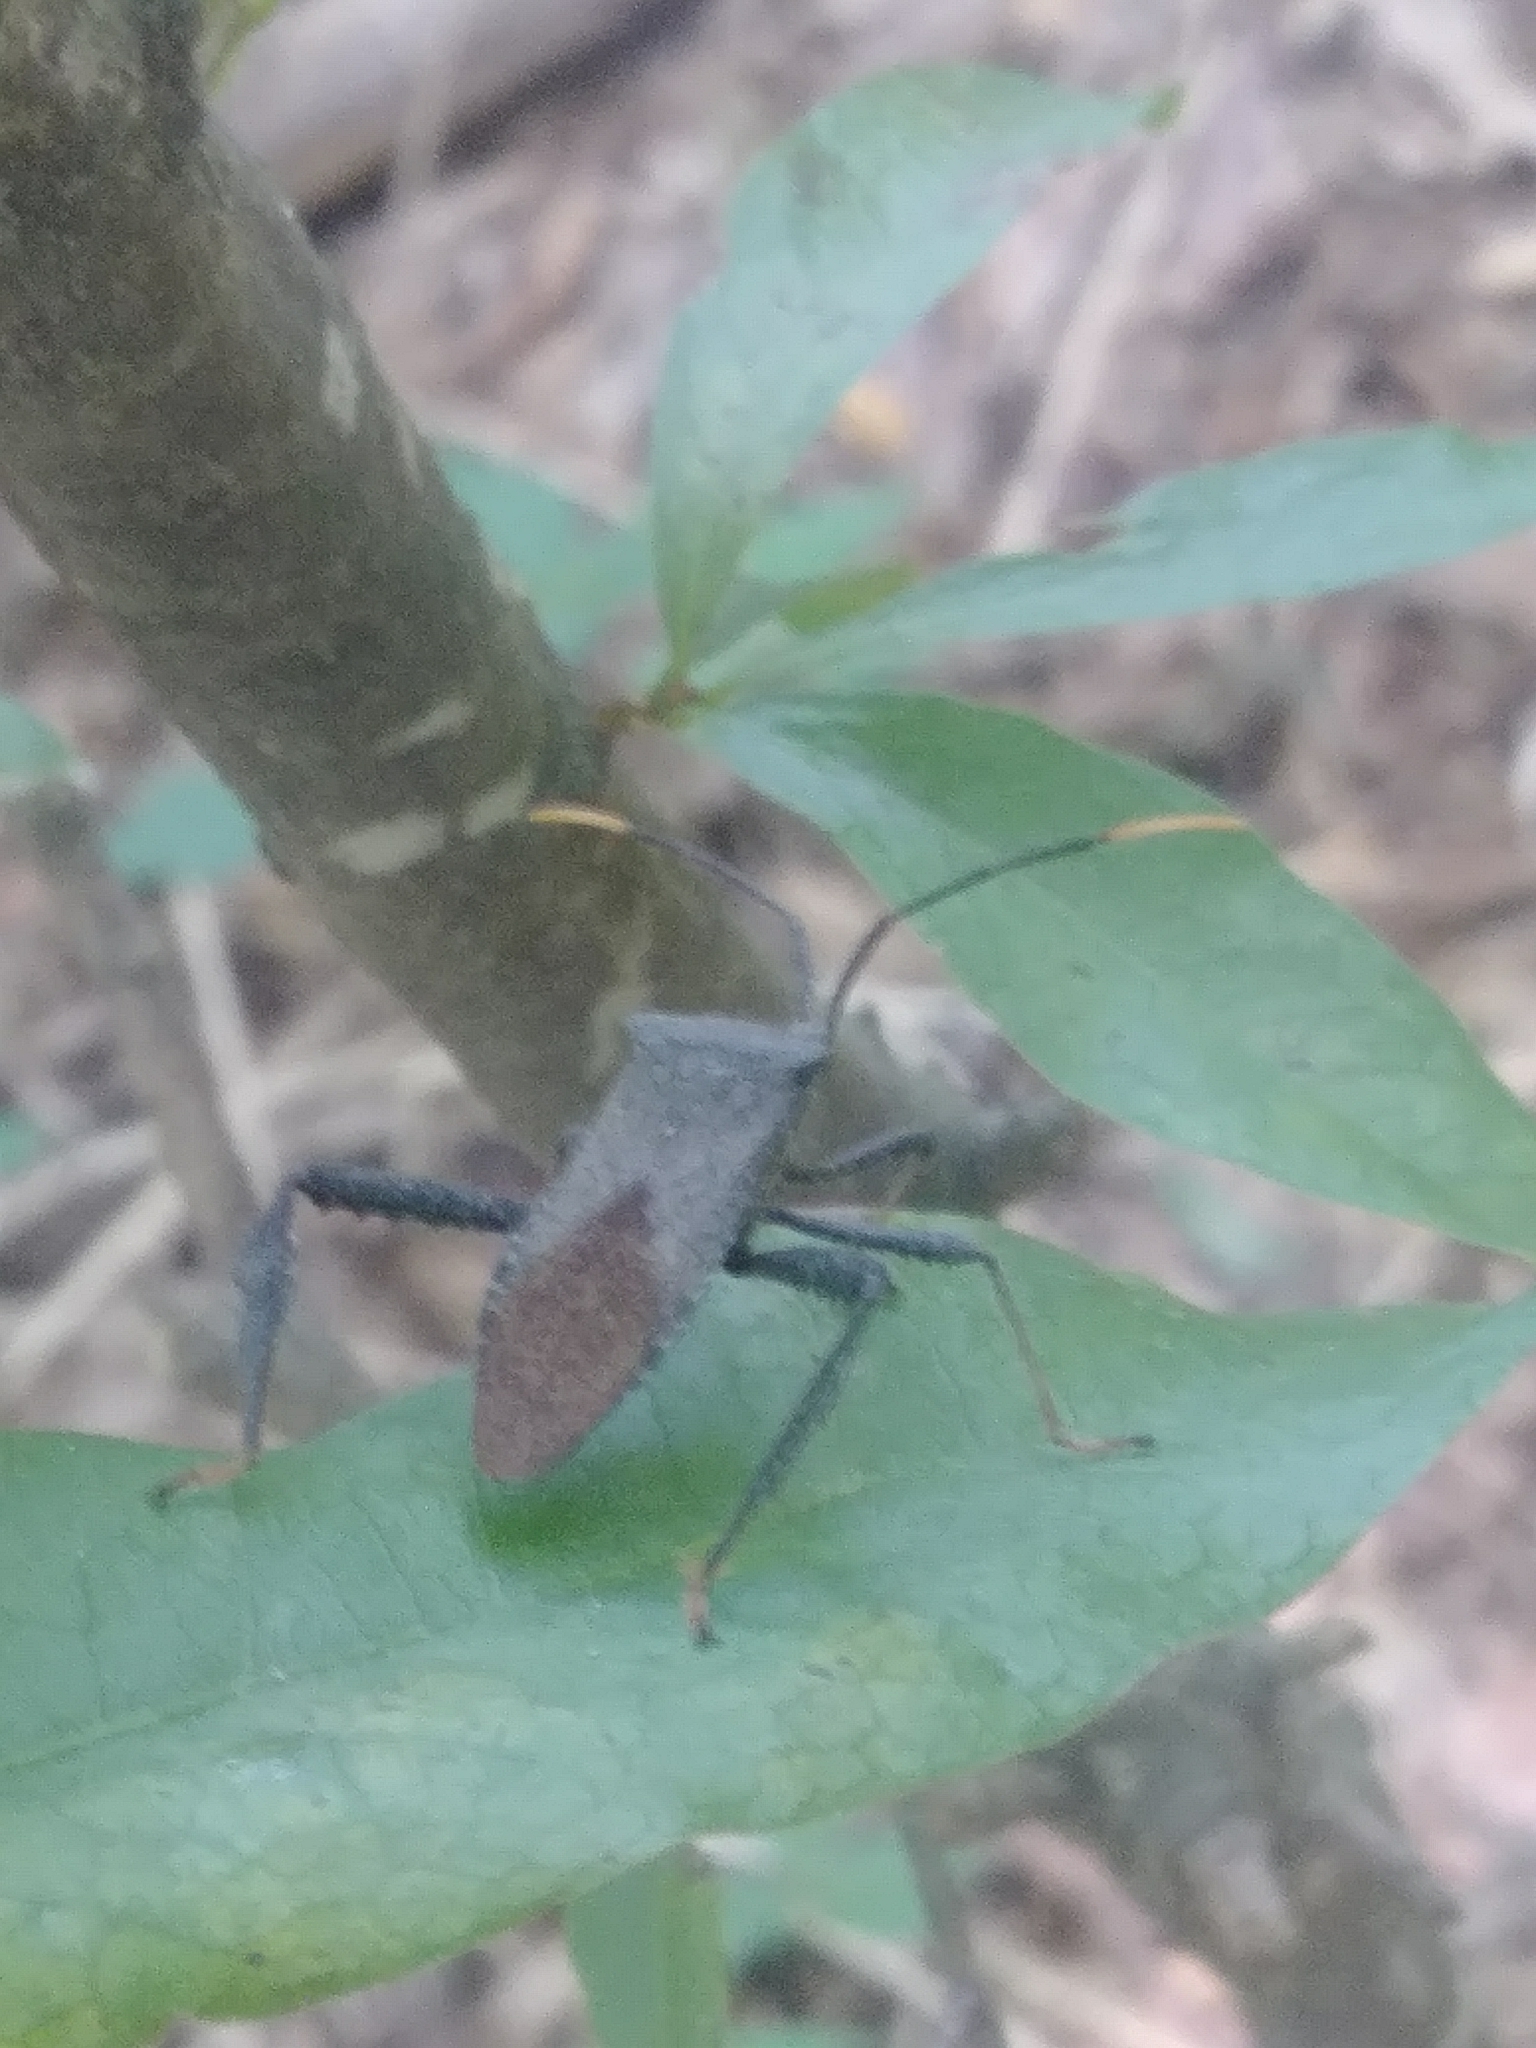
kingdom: Animalia
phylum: Arthropoda
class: Insecta
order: Hemiptera
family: Coreidae
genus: Acanthocephala
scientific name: Acanthocephala terminalis
